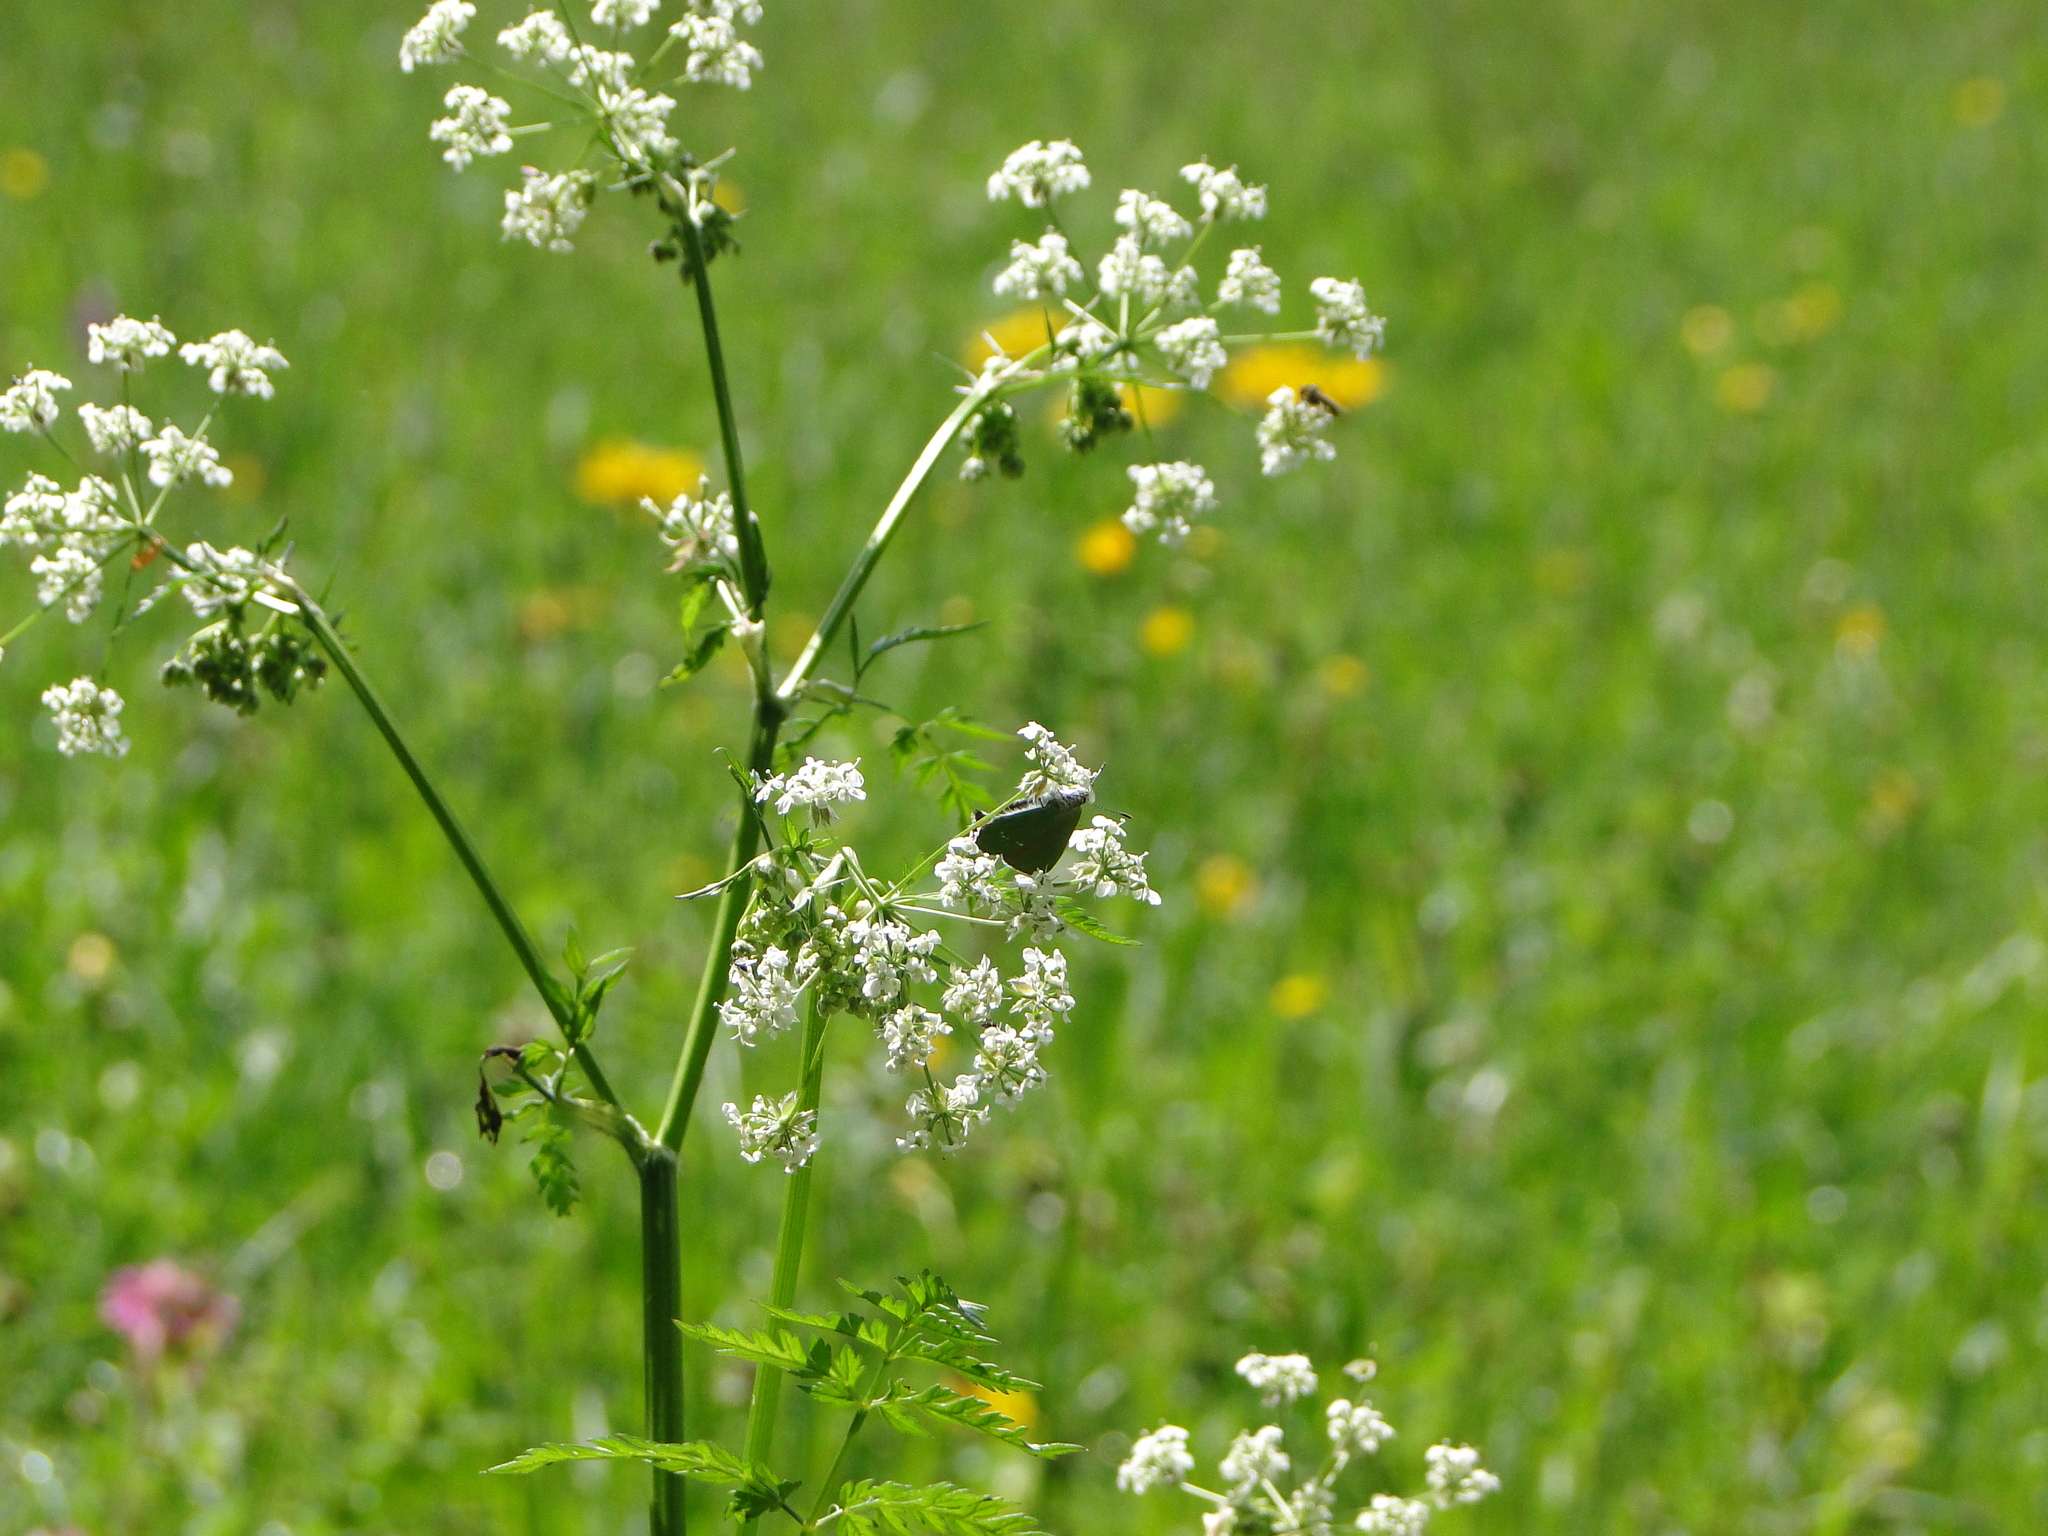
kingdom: Animalia
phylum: Arthropoda
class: Insecta
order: Lepidoptera
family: Lycaenidae
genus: Callophrys
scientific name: Callophrys rubi
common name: Green hairstreak
